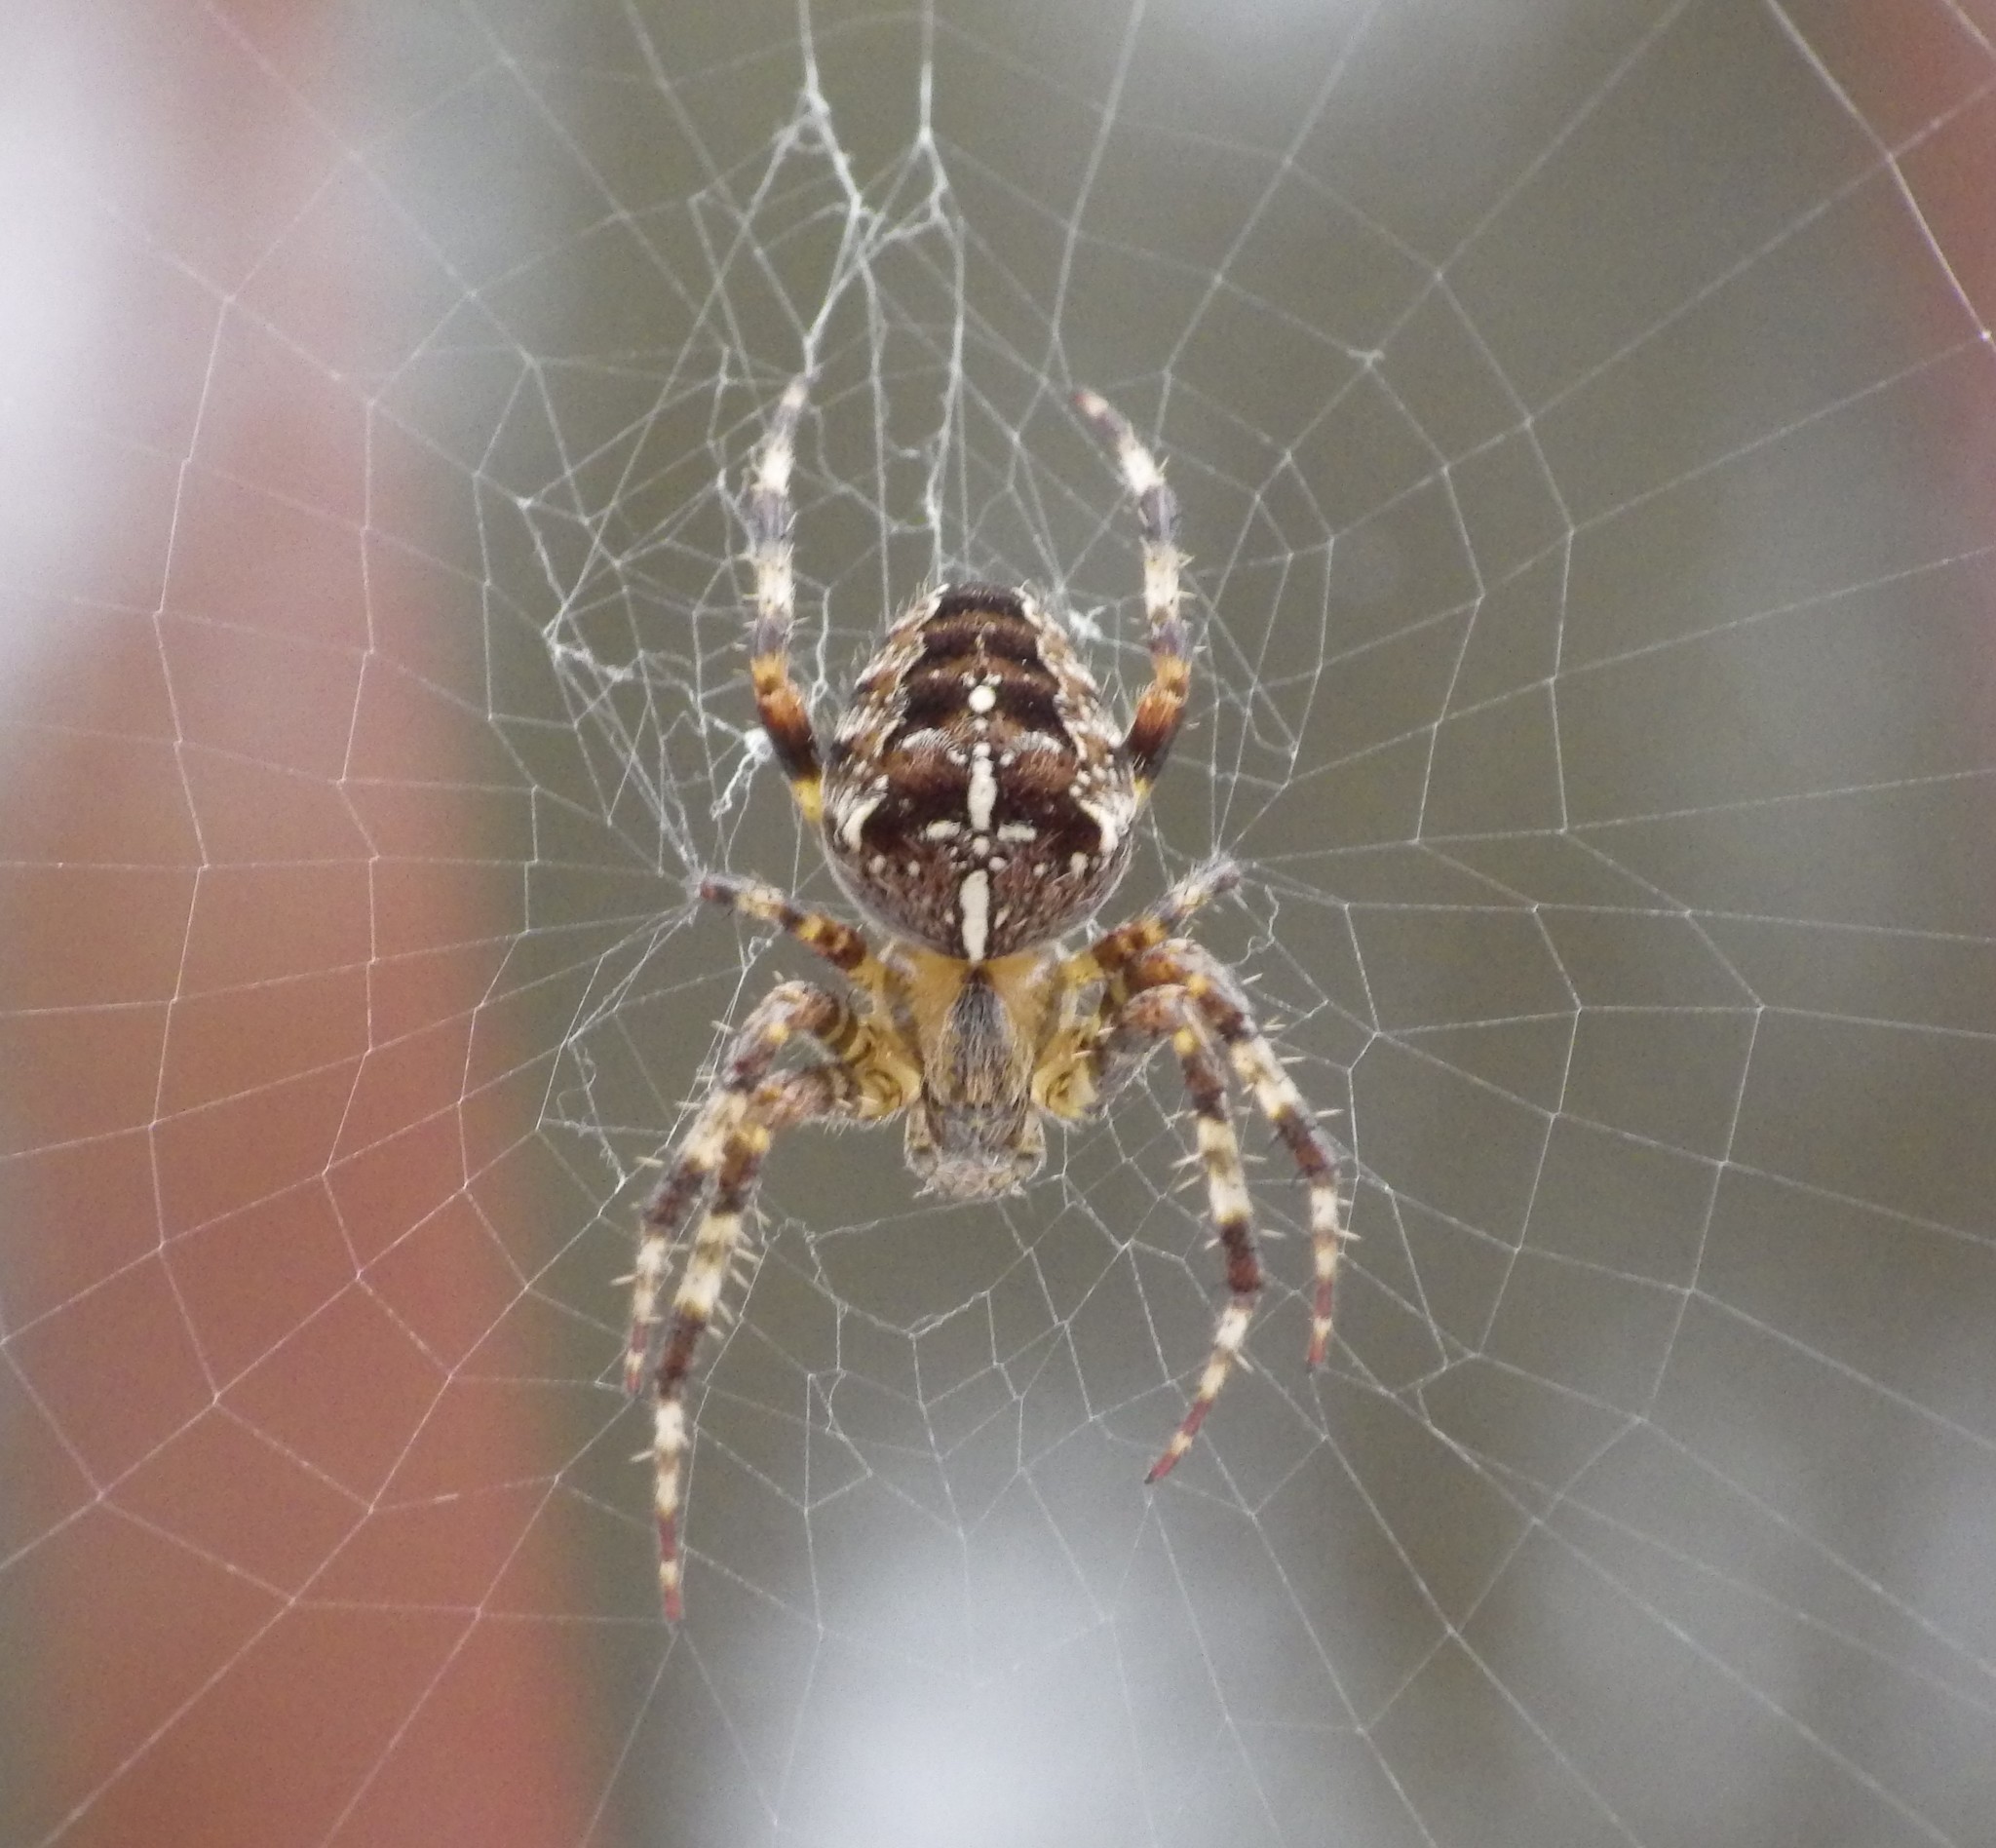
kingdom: Animalia
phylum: Arthropoda
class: Arachnida
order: Araneae
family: Araneidae
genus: Araneus
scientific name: Araneus diadematus
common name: Cross orbweaver
